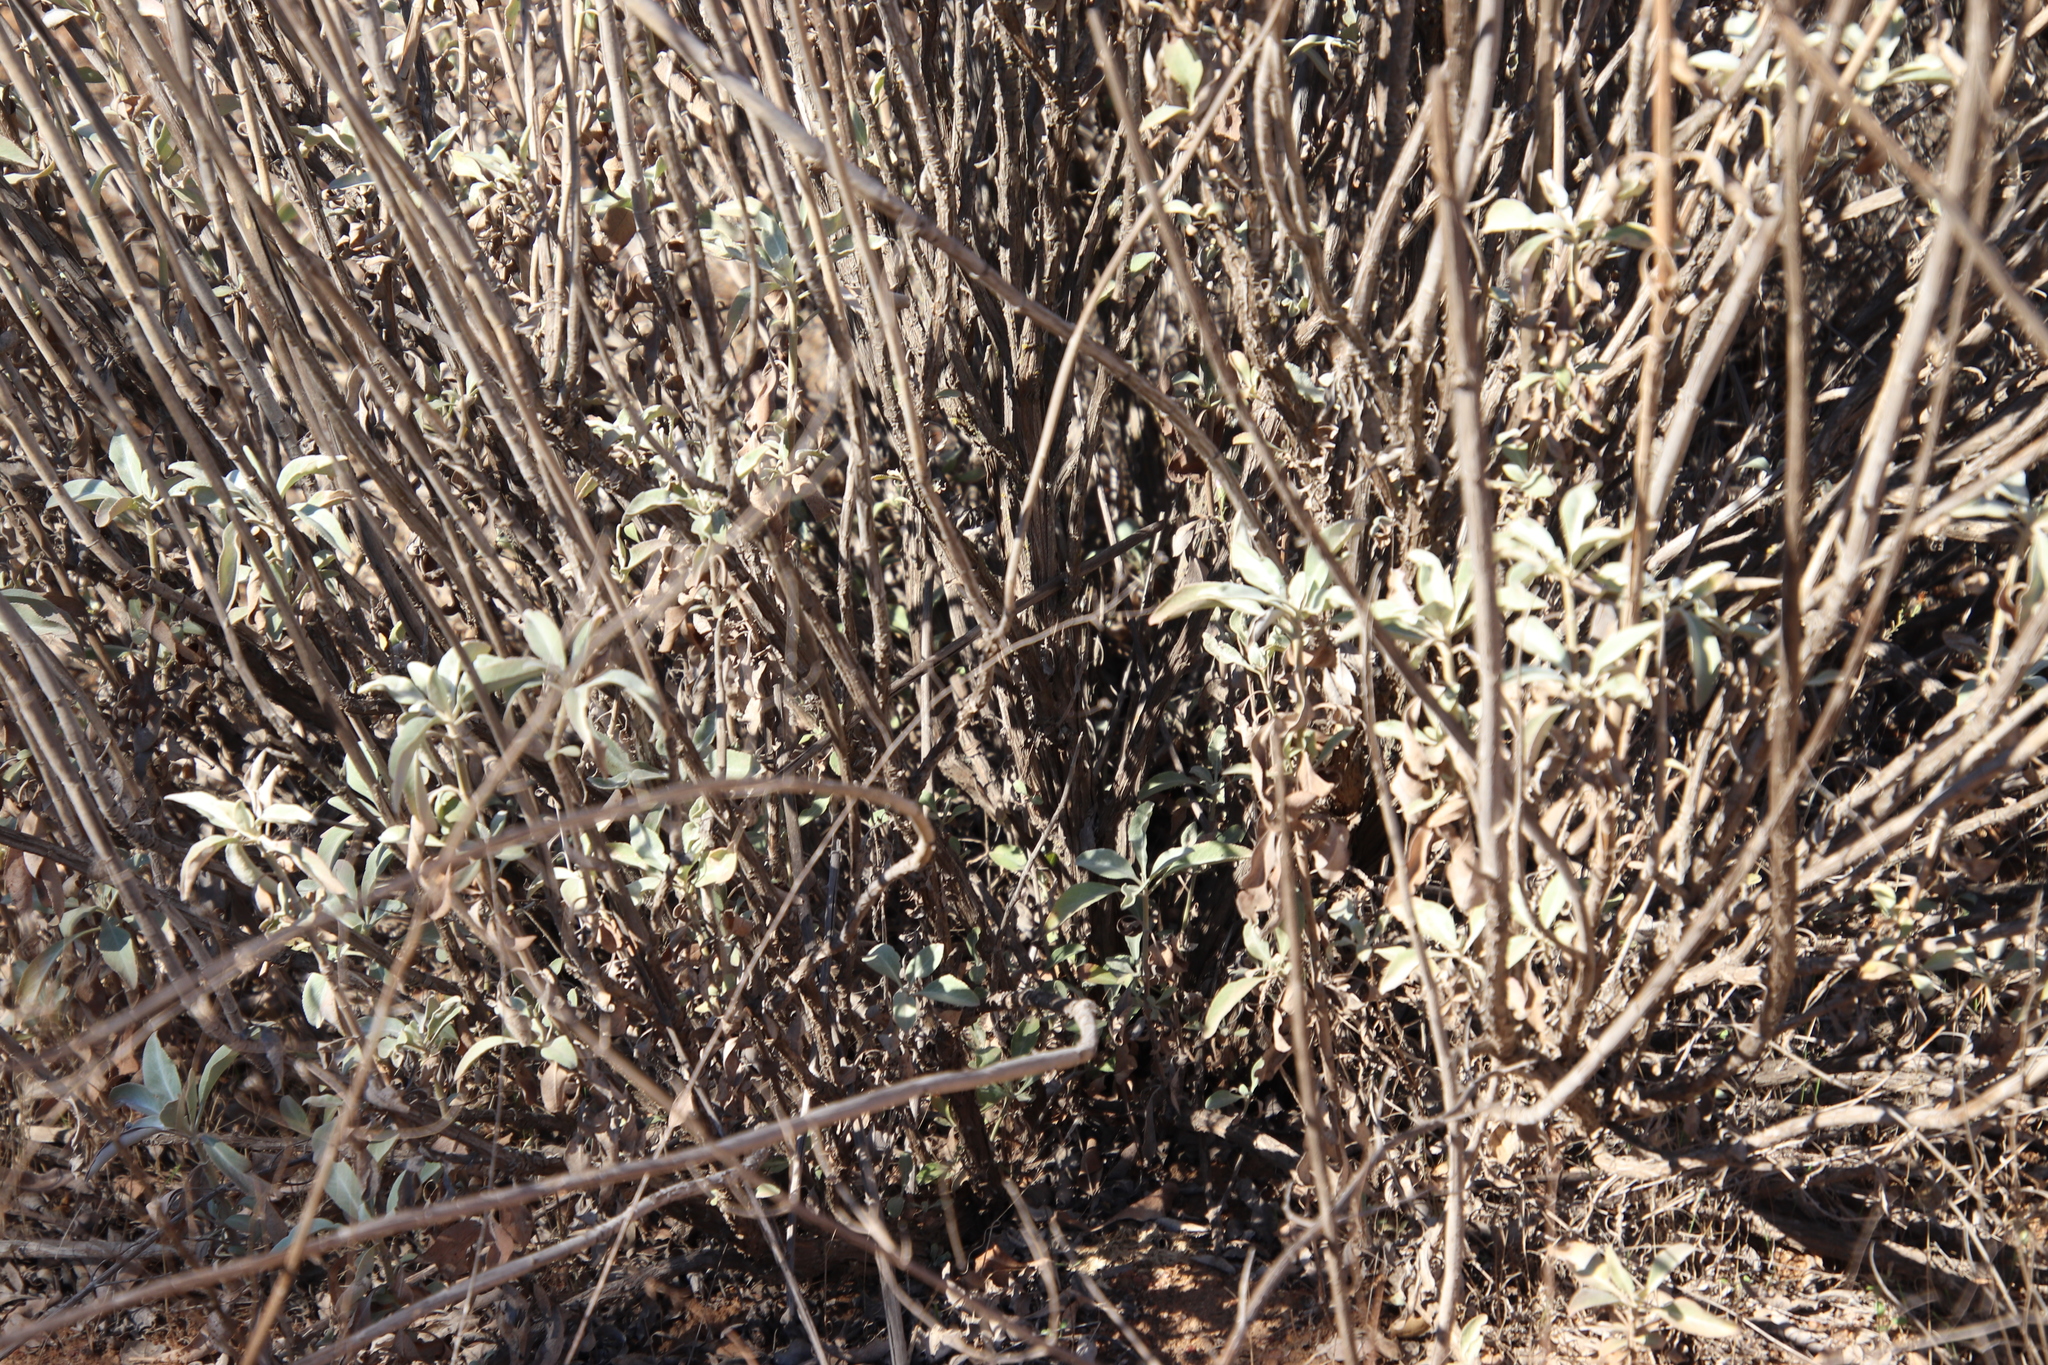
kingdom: Plantae
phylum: Tracheophyta
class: Magnoliopsida
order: Lamiales
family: Lamiaceae
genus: Salvia
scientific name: Salvia apiana
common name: White sage
